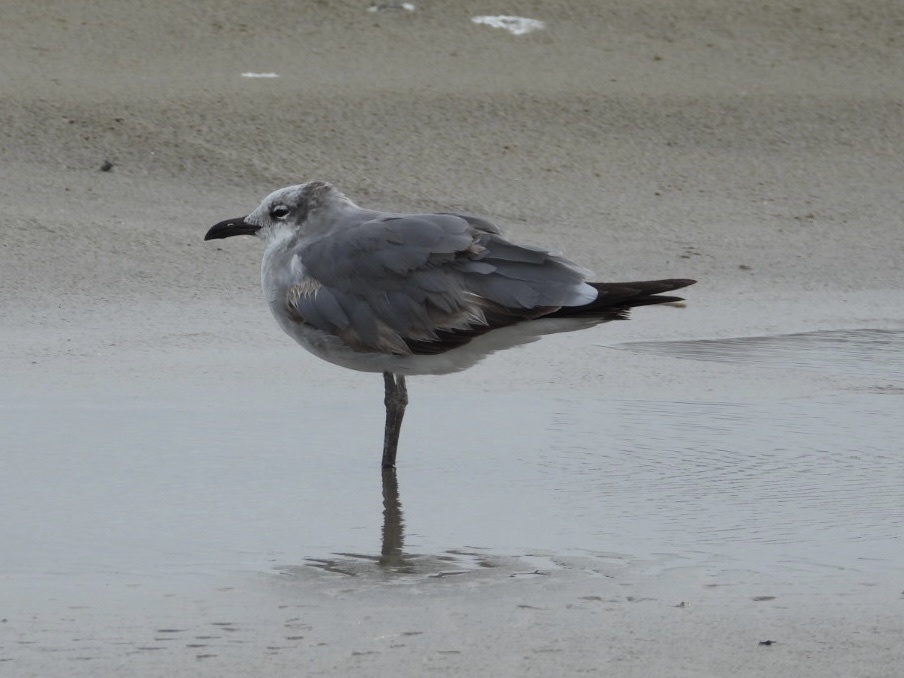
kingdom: Animalia
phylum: Chordata
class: Aves
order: Charadriiformes
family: Laridae
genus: Leucophaeus
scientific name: Leucophaeus atricilla
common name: Laughing gull
